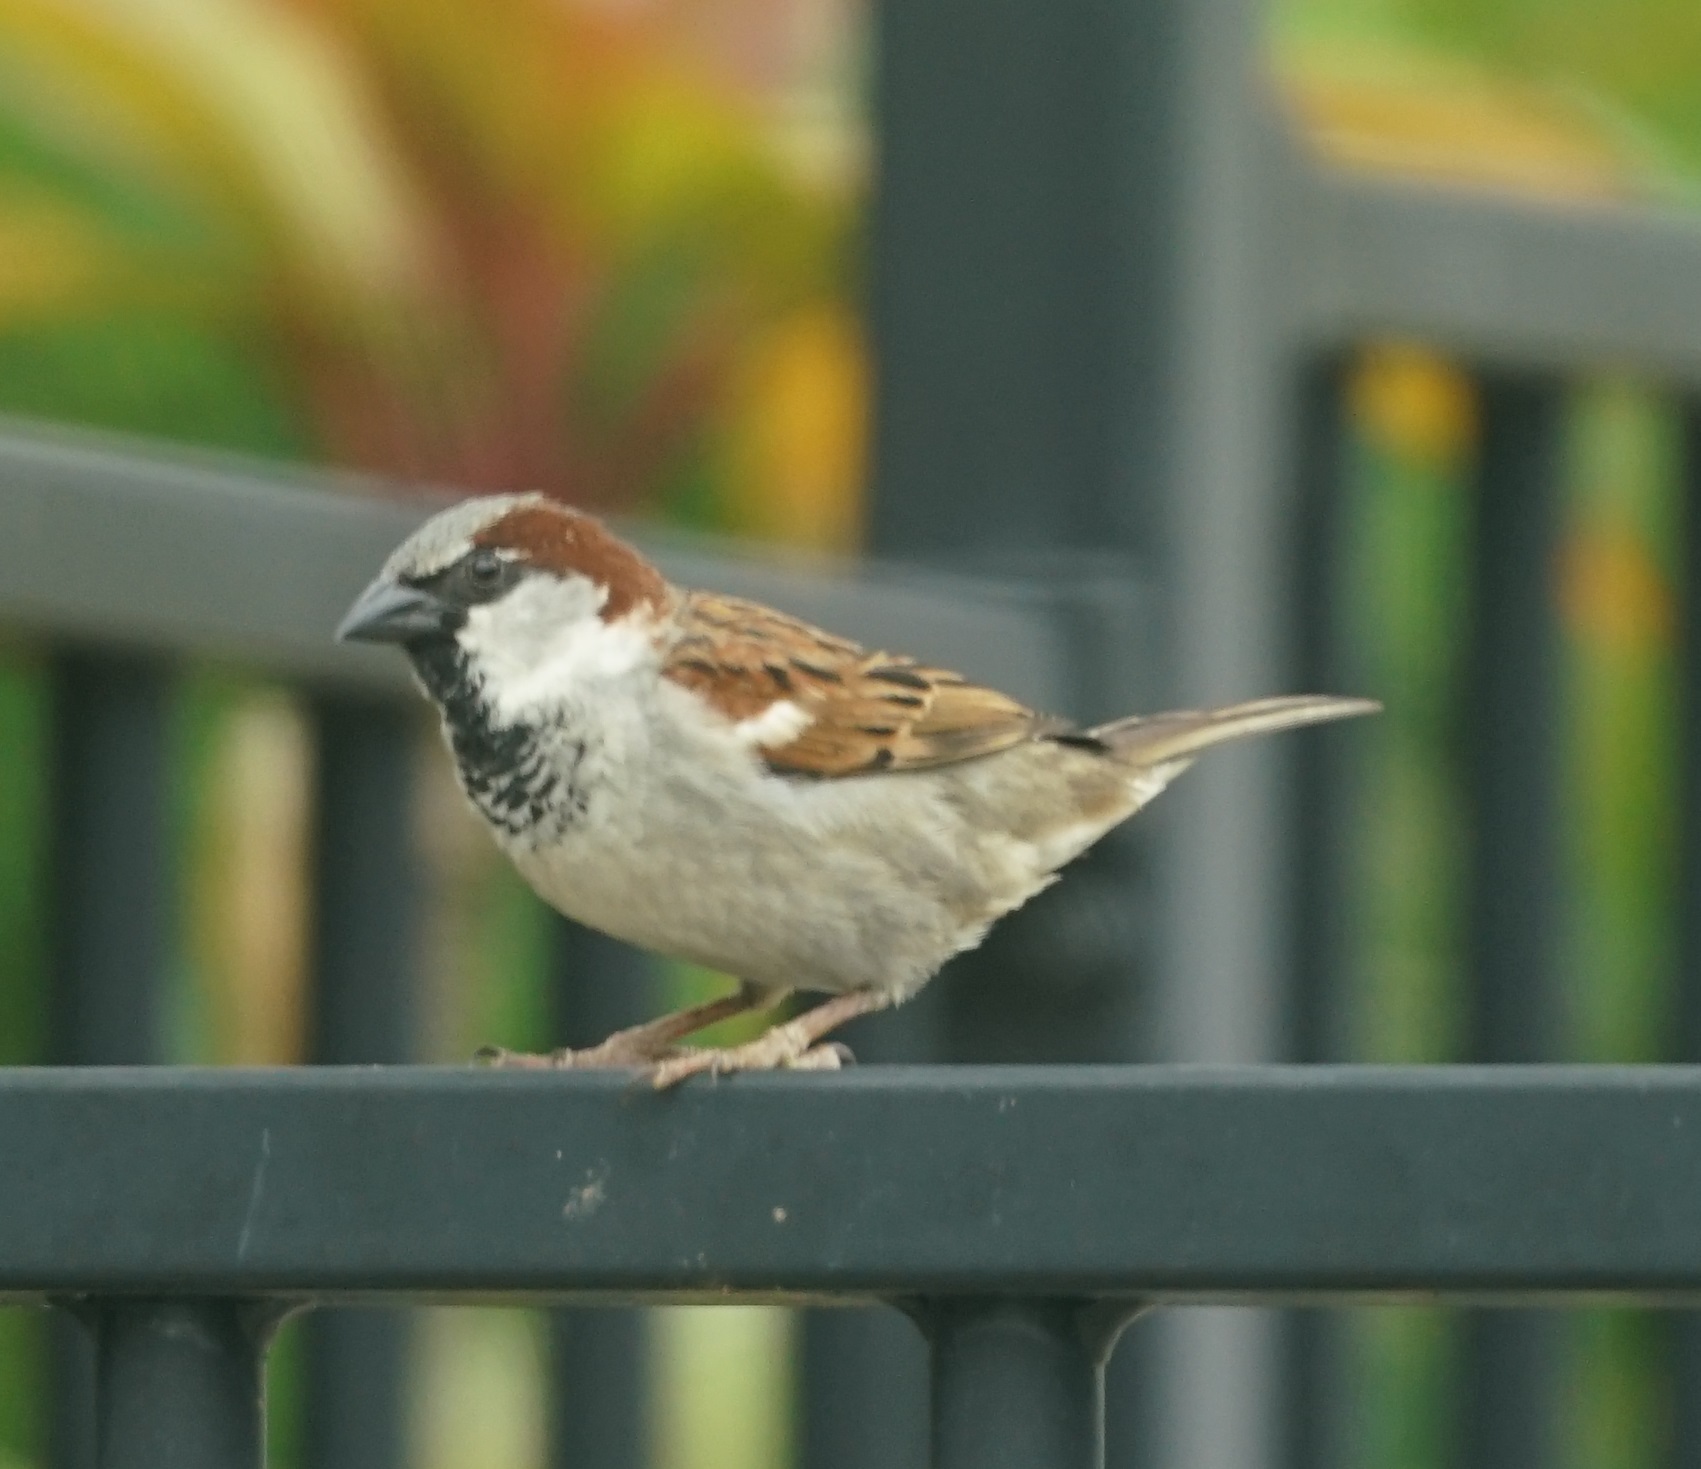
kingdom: Animalia
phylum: Chordata
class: Aves
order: Passeriformes
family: Passeridae
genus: Passer
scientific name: Passer domesticus
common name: House sparrow
